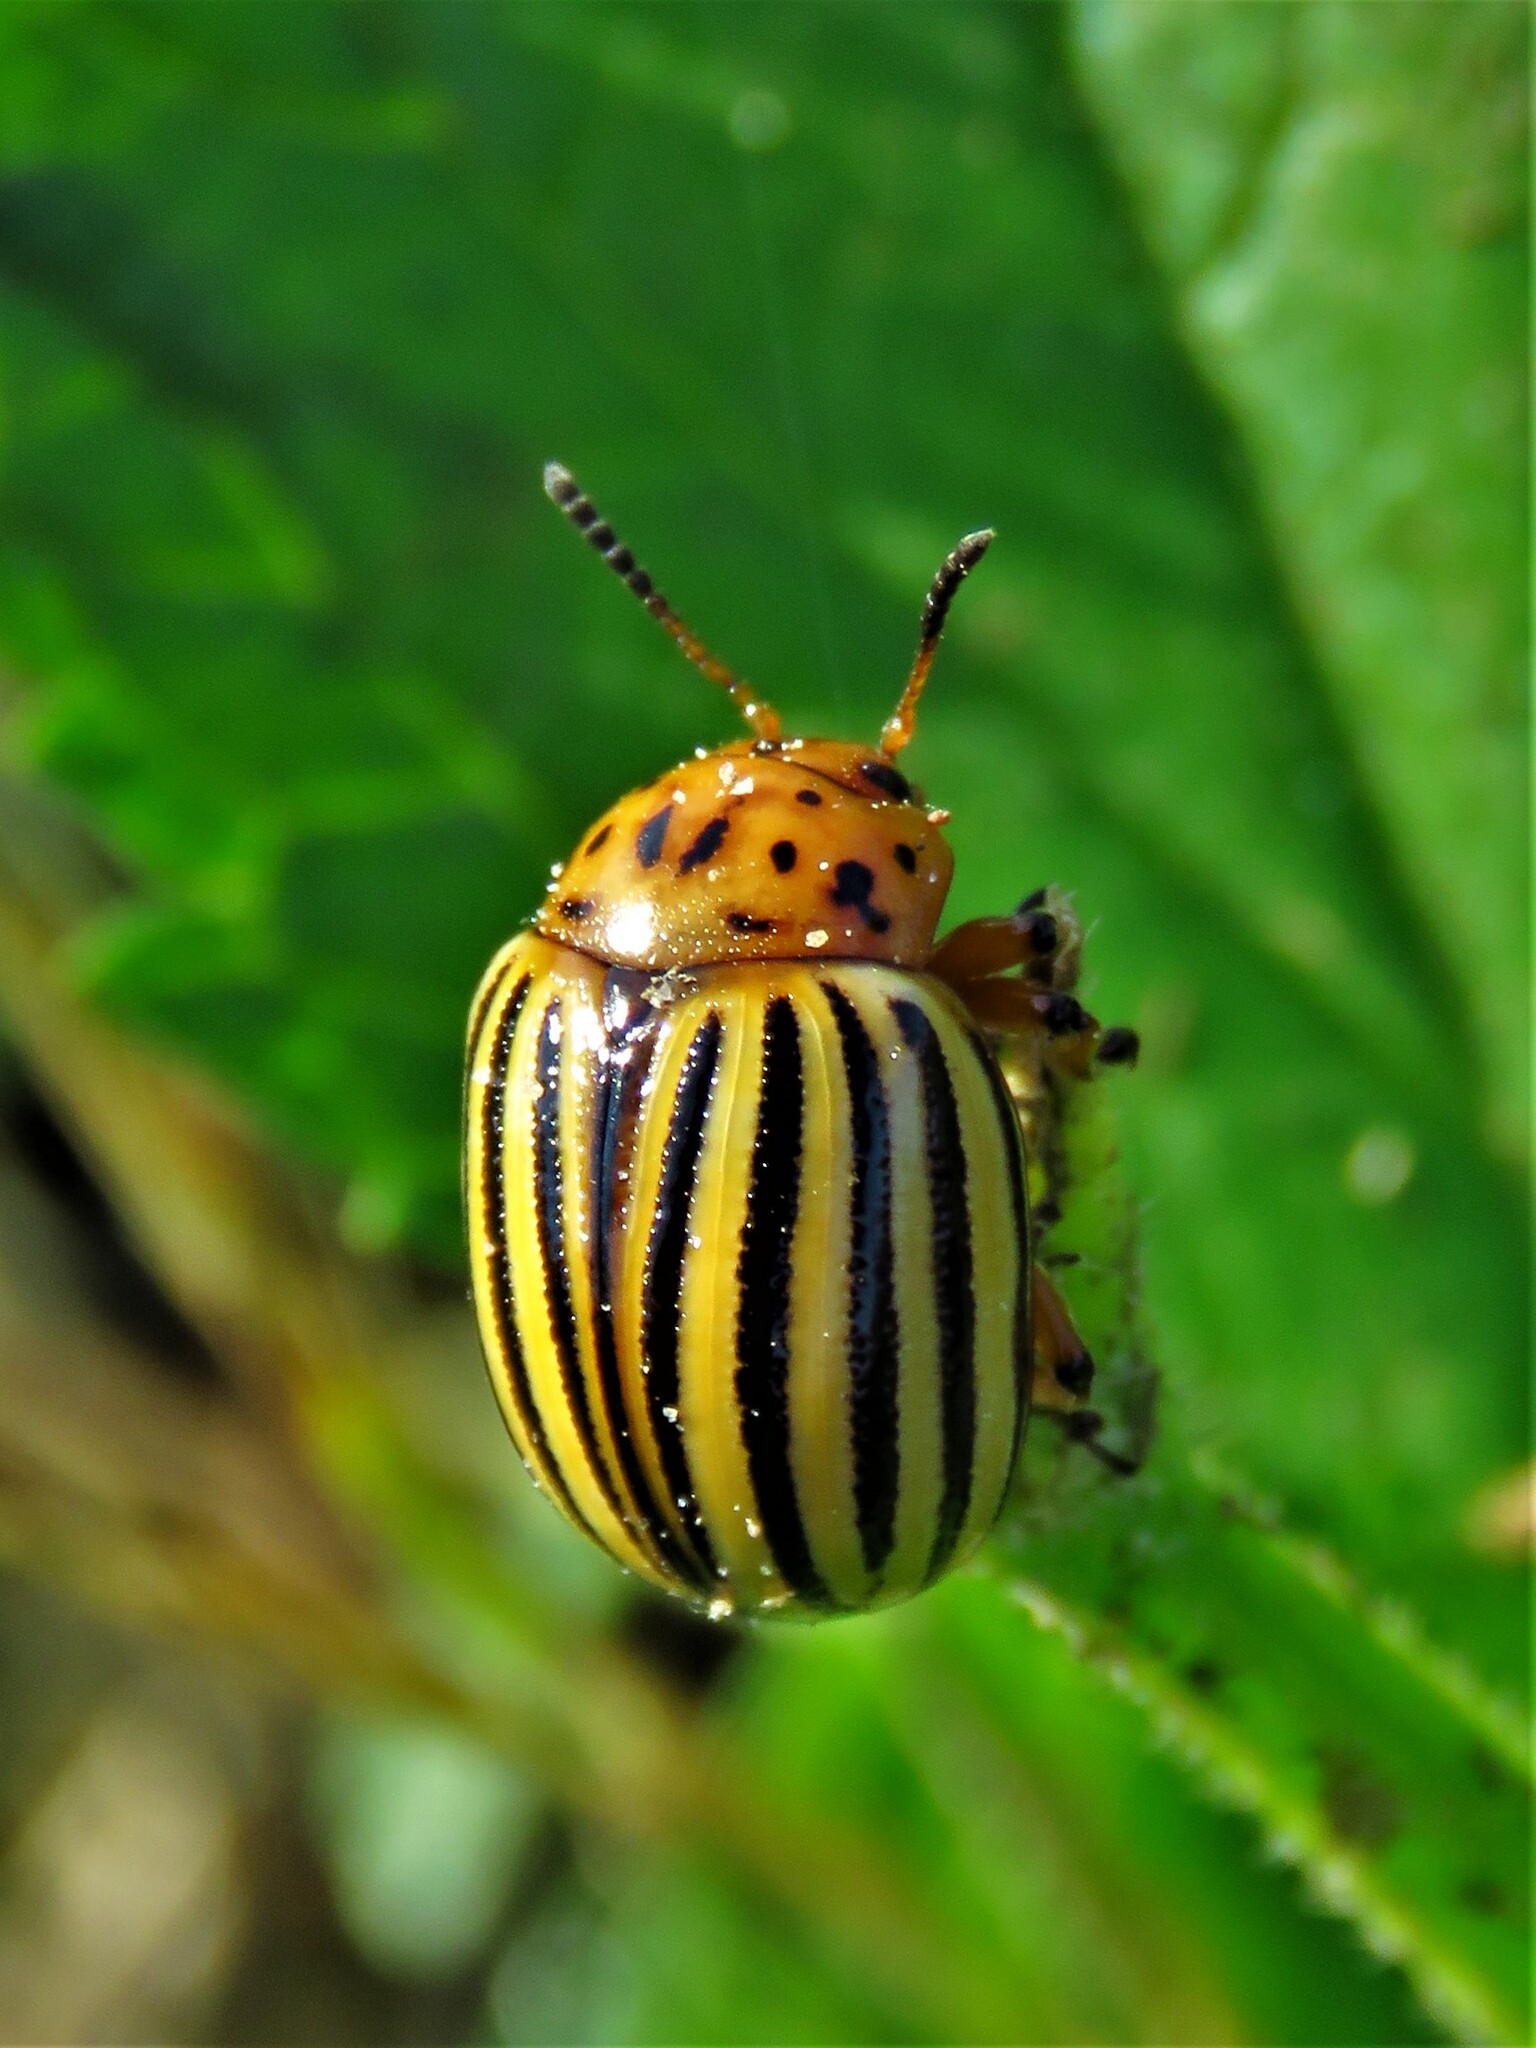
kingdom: Animalia
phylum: Arthropoda
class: Insecta
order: Coleoptera
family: Chrysomelidae
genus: Leptinotarsa
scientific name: Leptinotarsa decemlineata
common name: Colorado potato beetle
